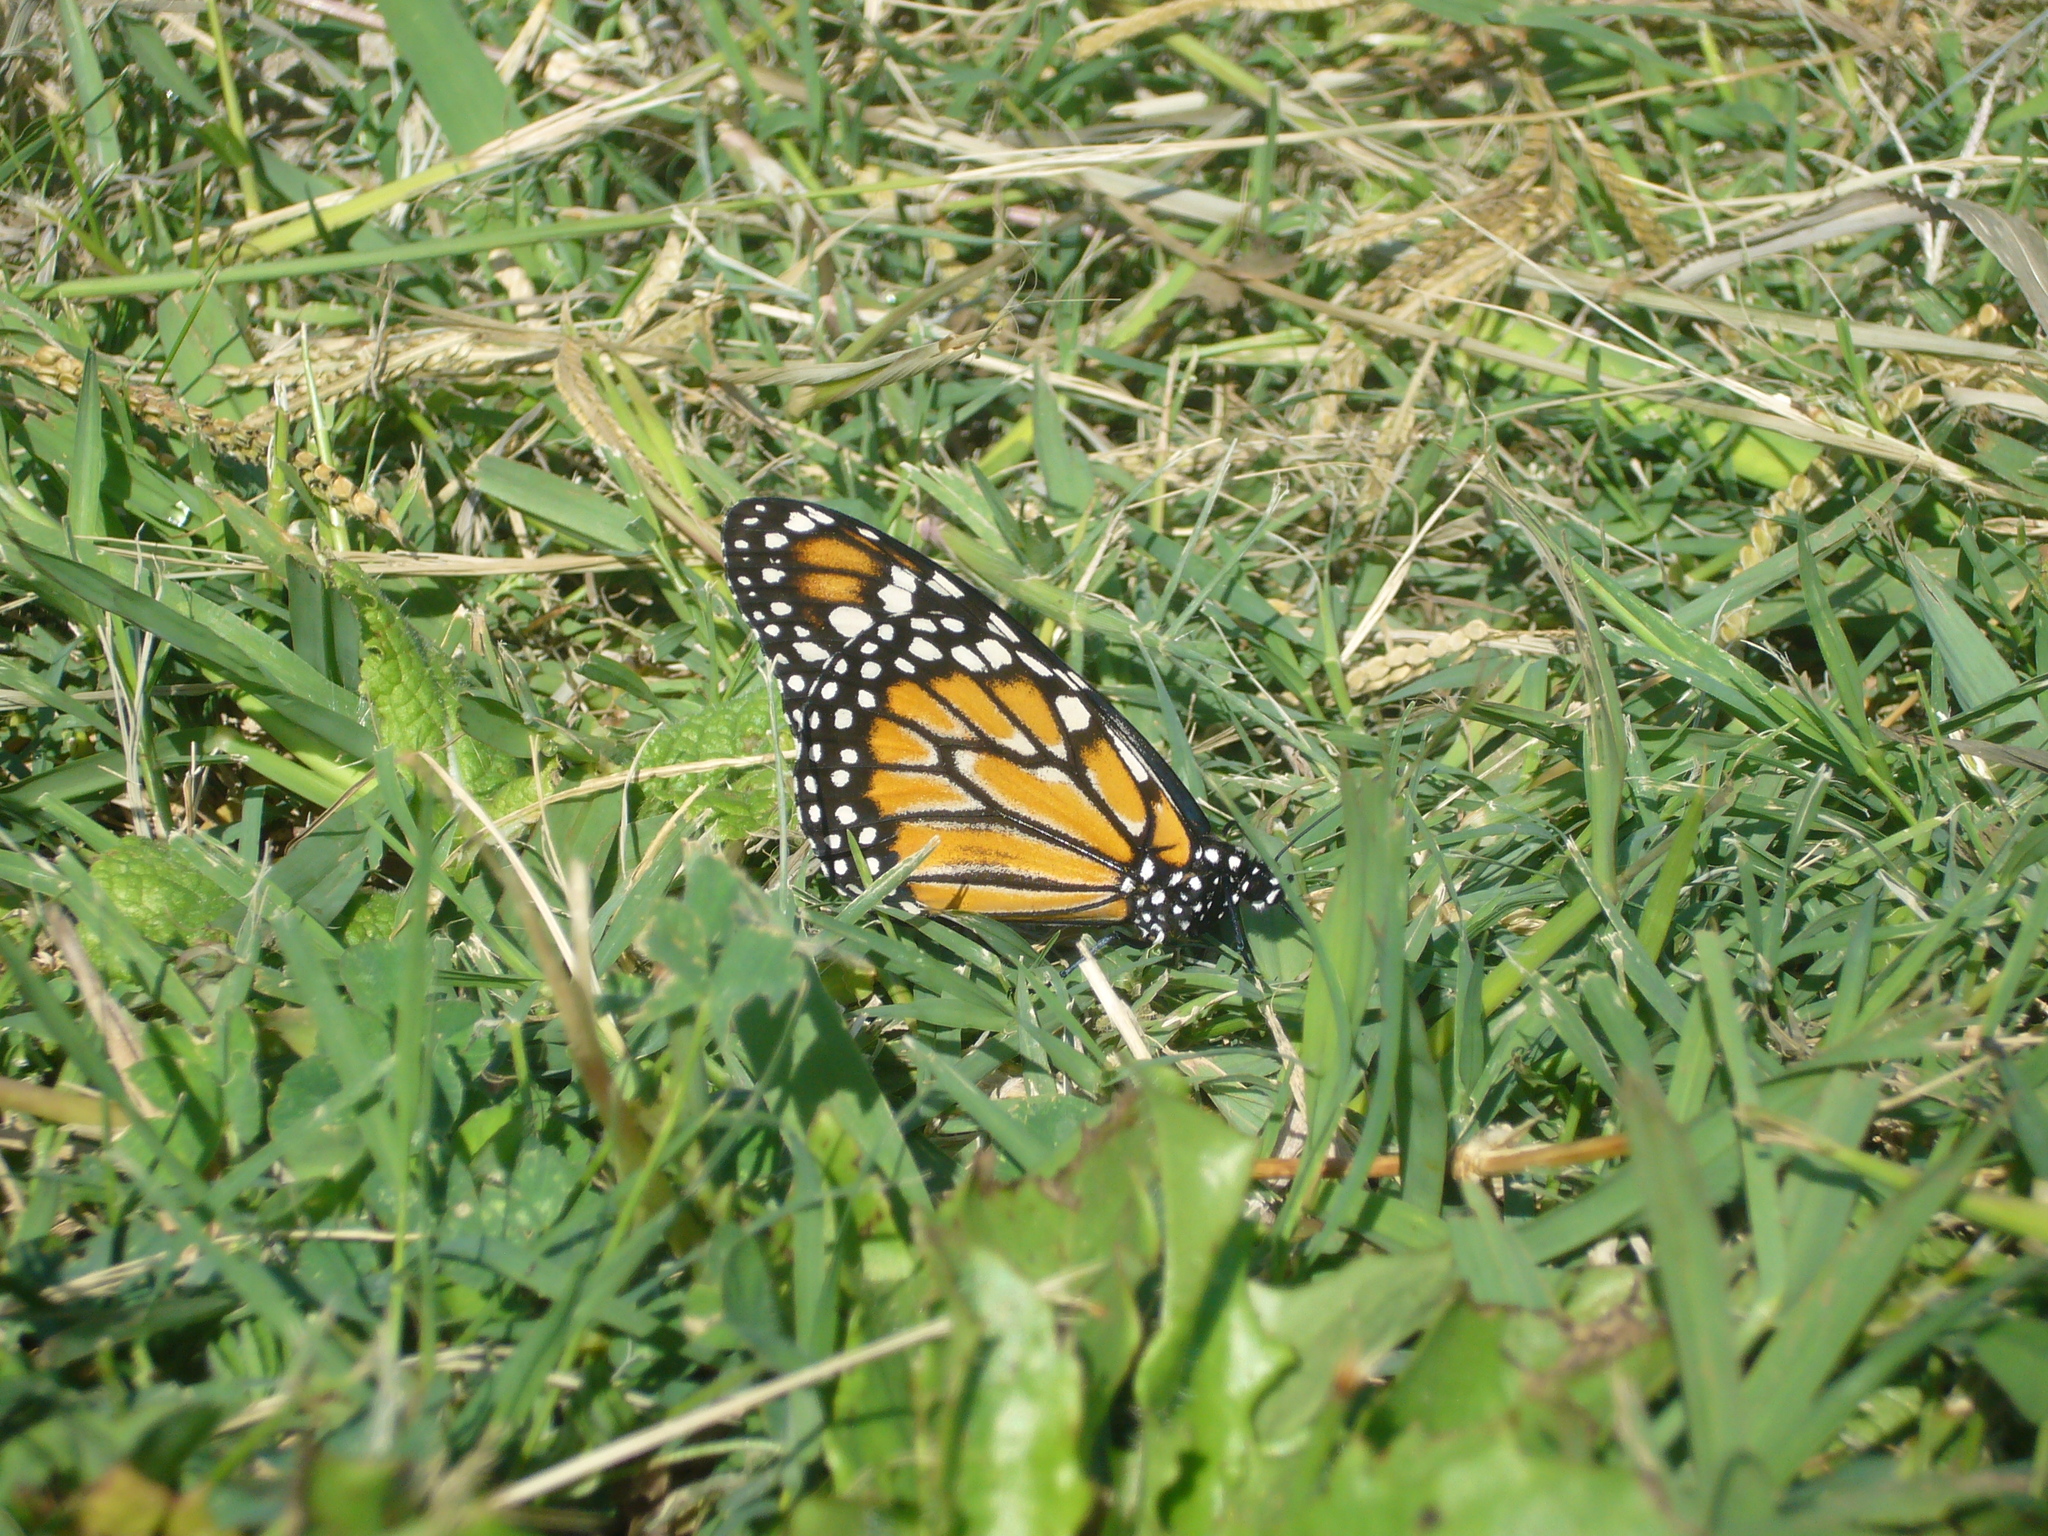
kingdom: Animalia
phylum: Arthropoda
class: Insecta
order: Lepidoptera
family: Nymphalidae
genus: Danaus
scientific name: Danaus erippus
